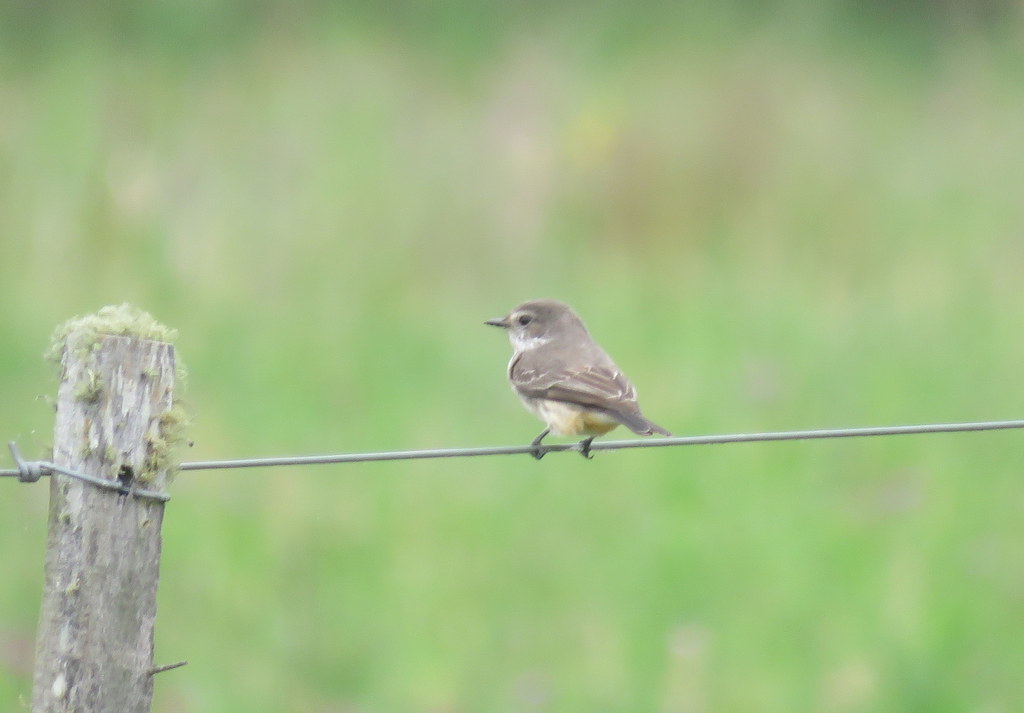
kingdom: Animalia
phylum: Chordata
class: Aves
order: Passeriformes
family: Tyrannidae
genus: Pyrocephalus
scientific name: Pyrocephalus rubinus
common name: Vermilion flycatcher
